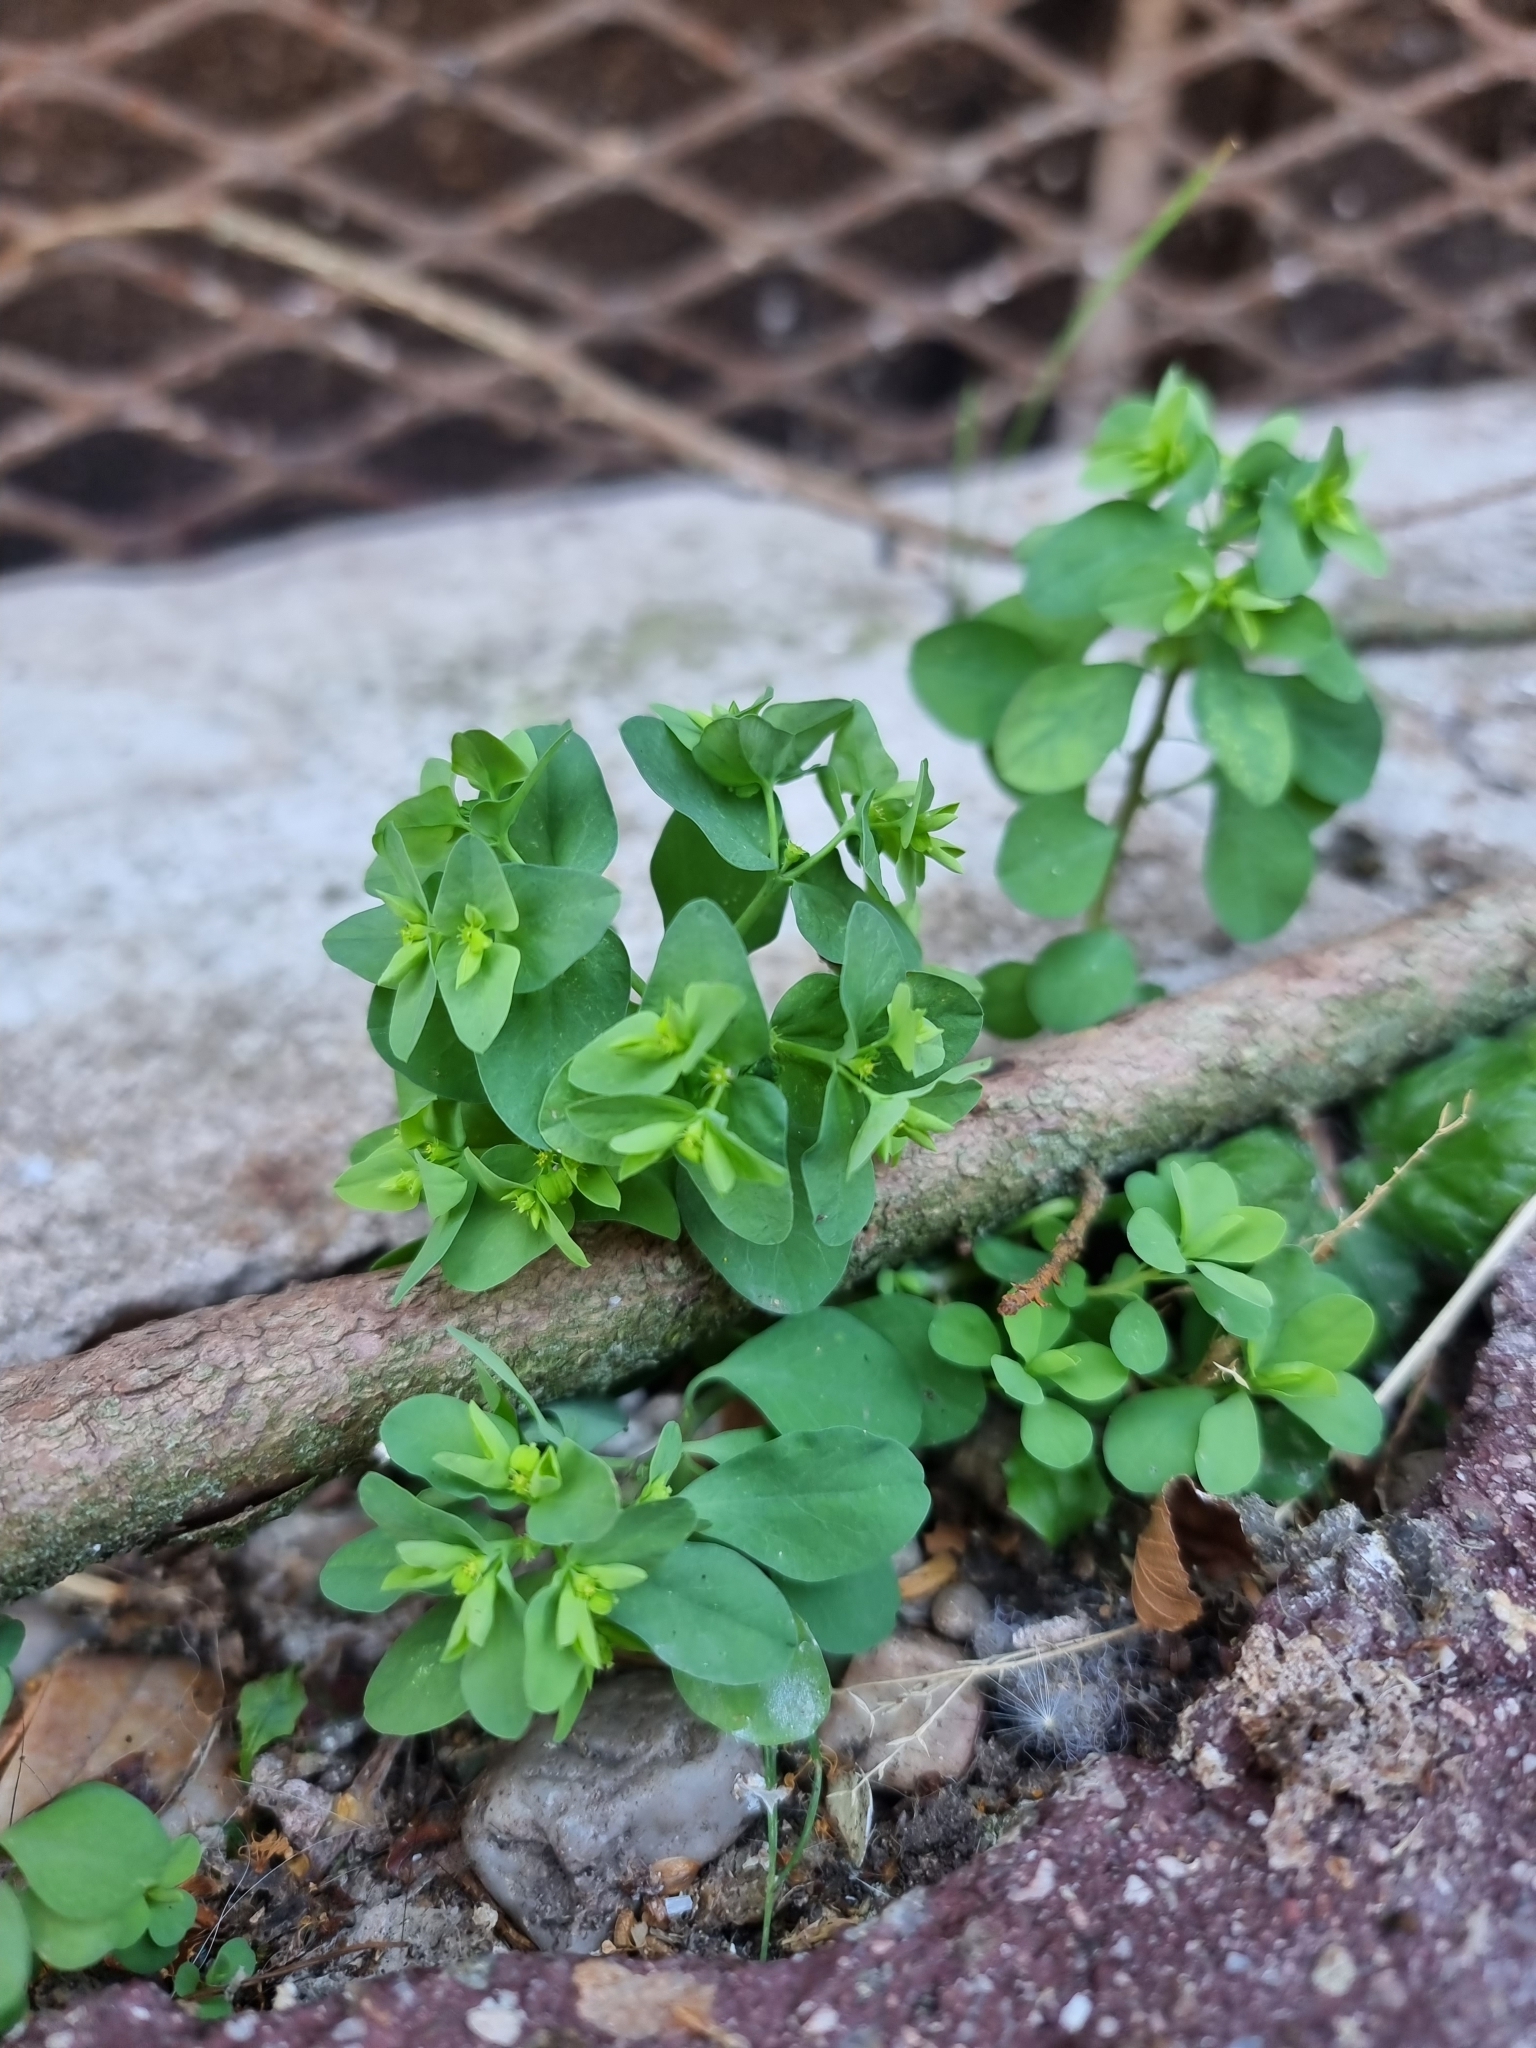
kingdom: Plantae
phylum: Tracheophyta
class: Magnoliopsida
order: Malpighiales
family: Euphorbiaceae
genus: Euphorbia
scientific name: Euphorbia peplus
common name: Petty spurge
